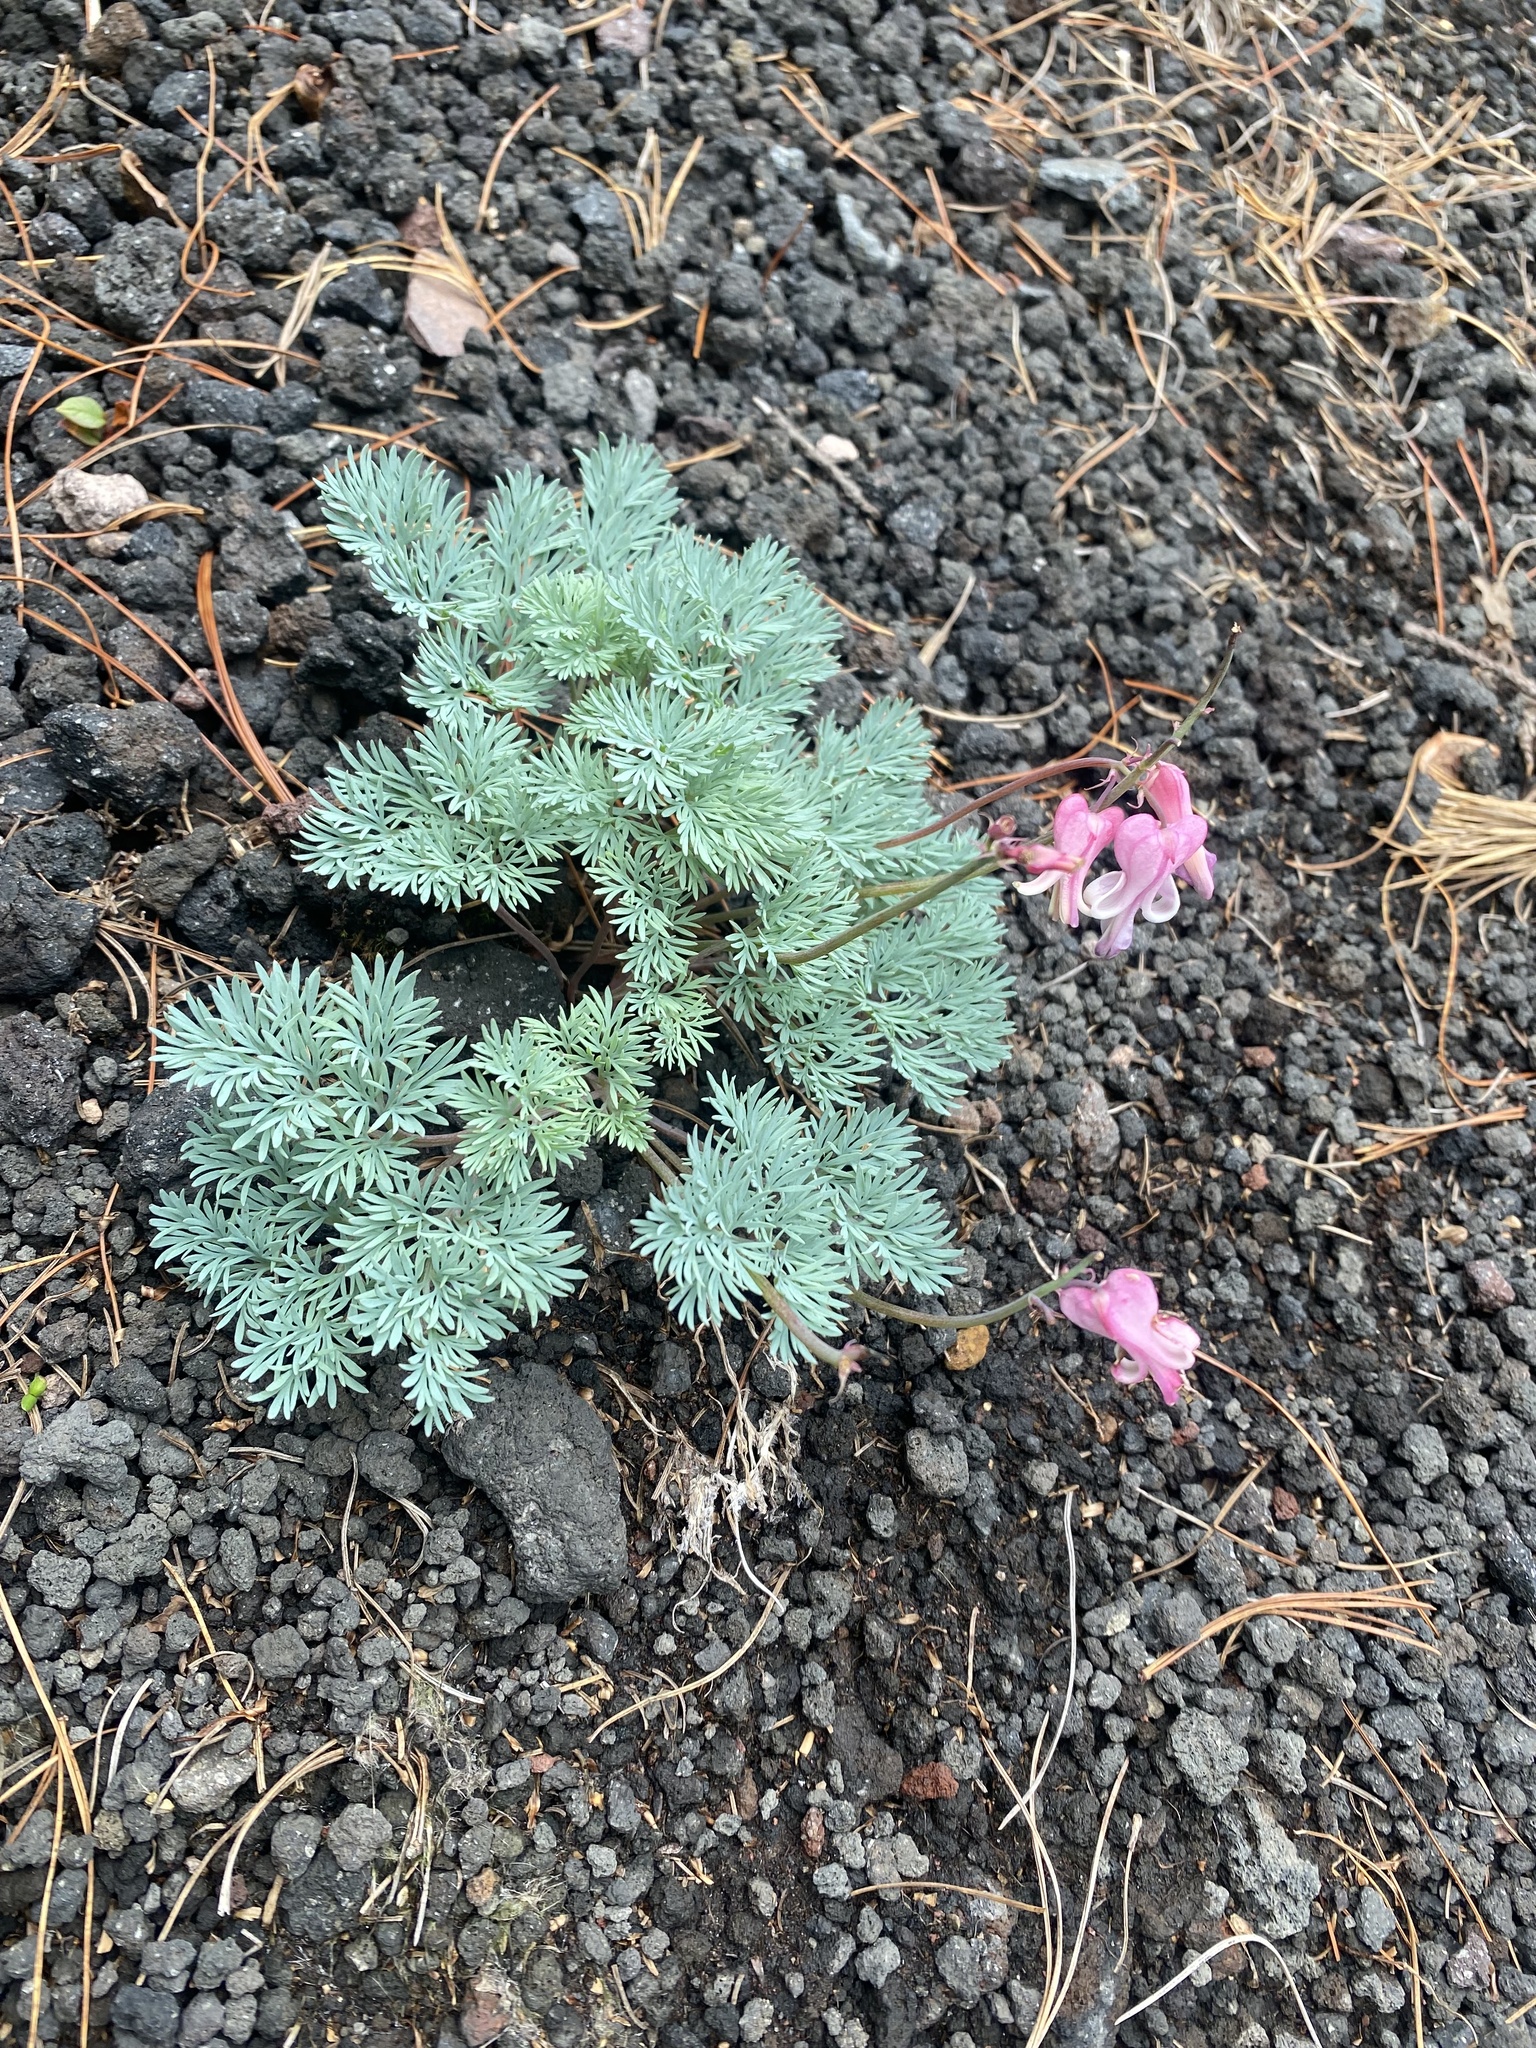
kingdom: Plantae
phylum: Tracheophyta
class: Magnoliopsida
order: Ranunculales
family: Papaveraceae
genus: Dicentra
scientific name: Dicentra peregrina
